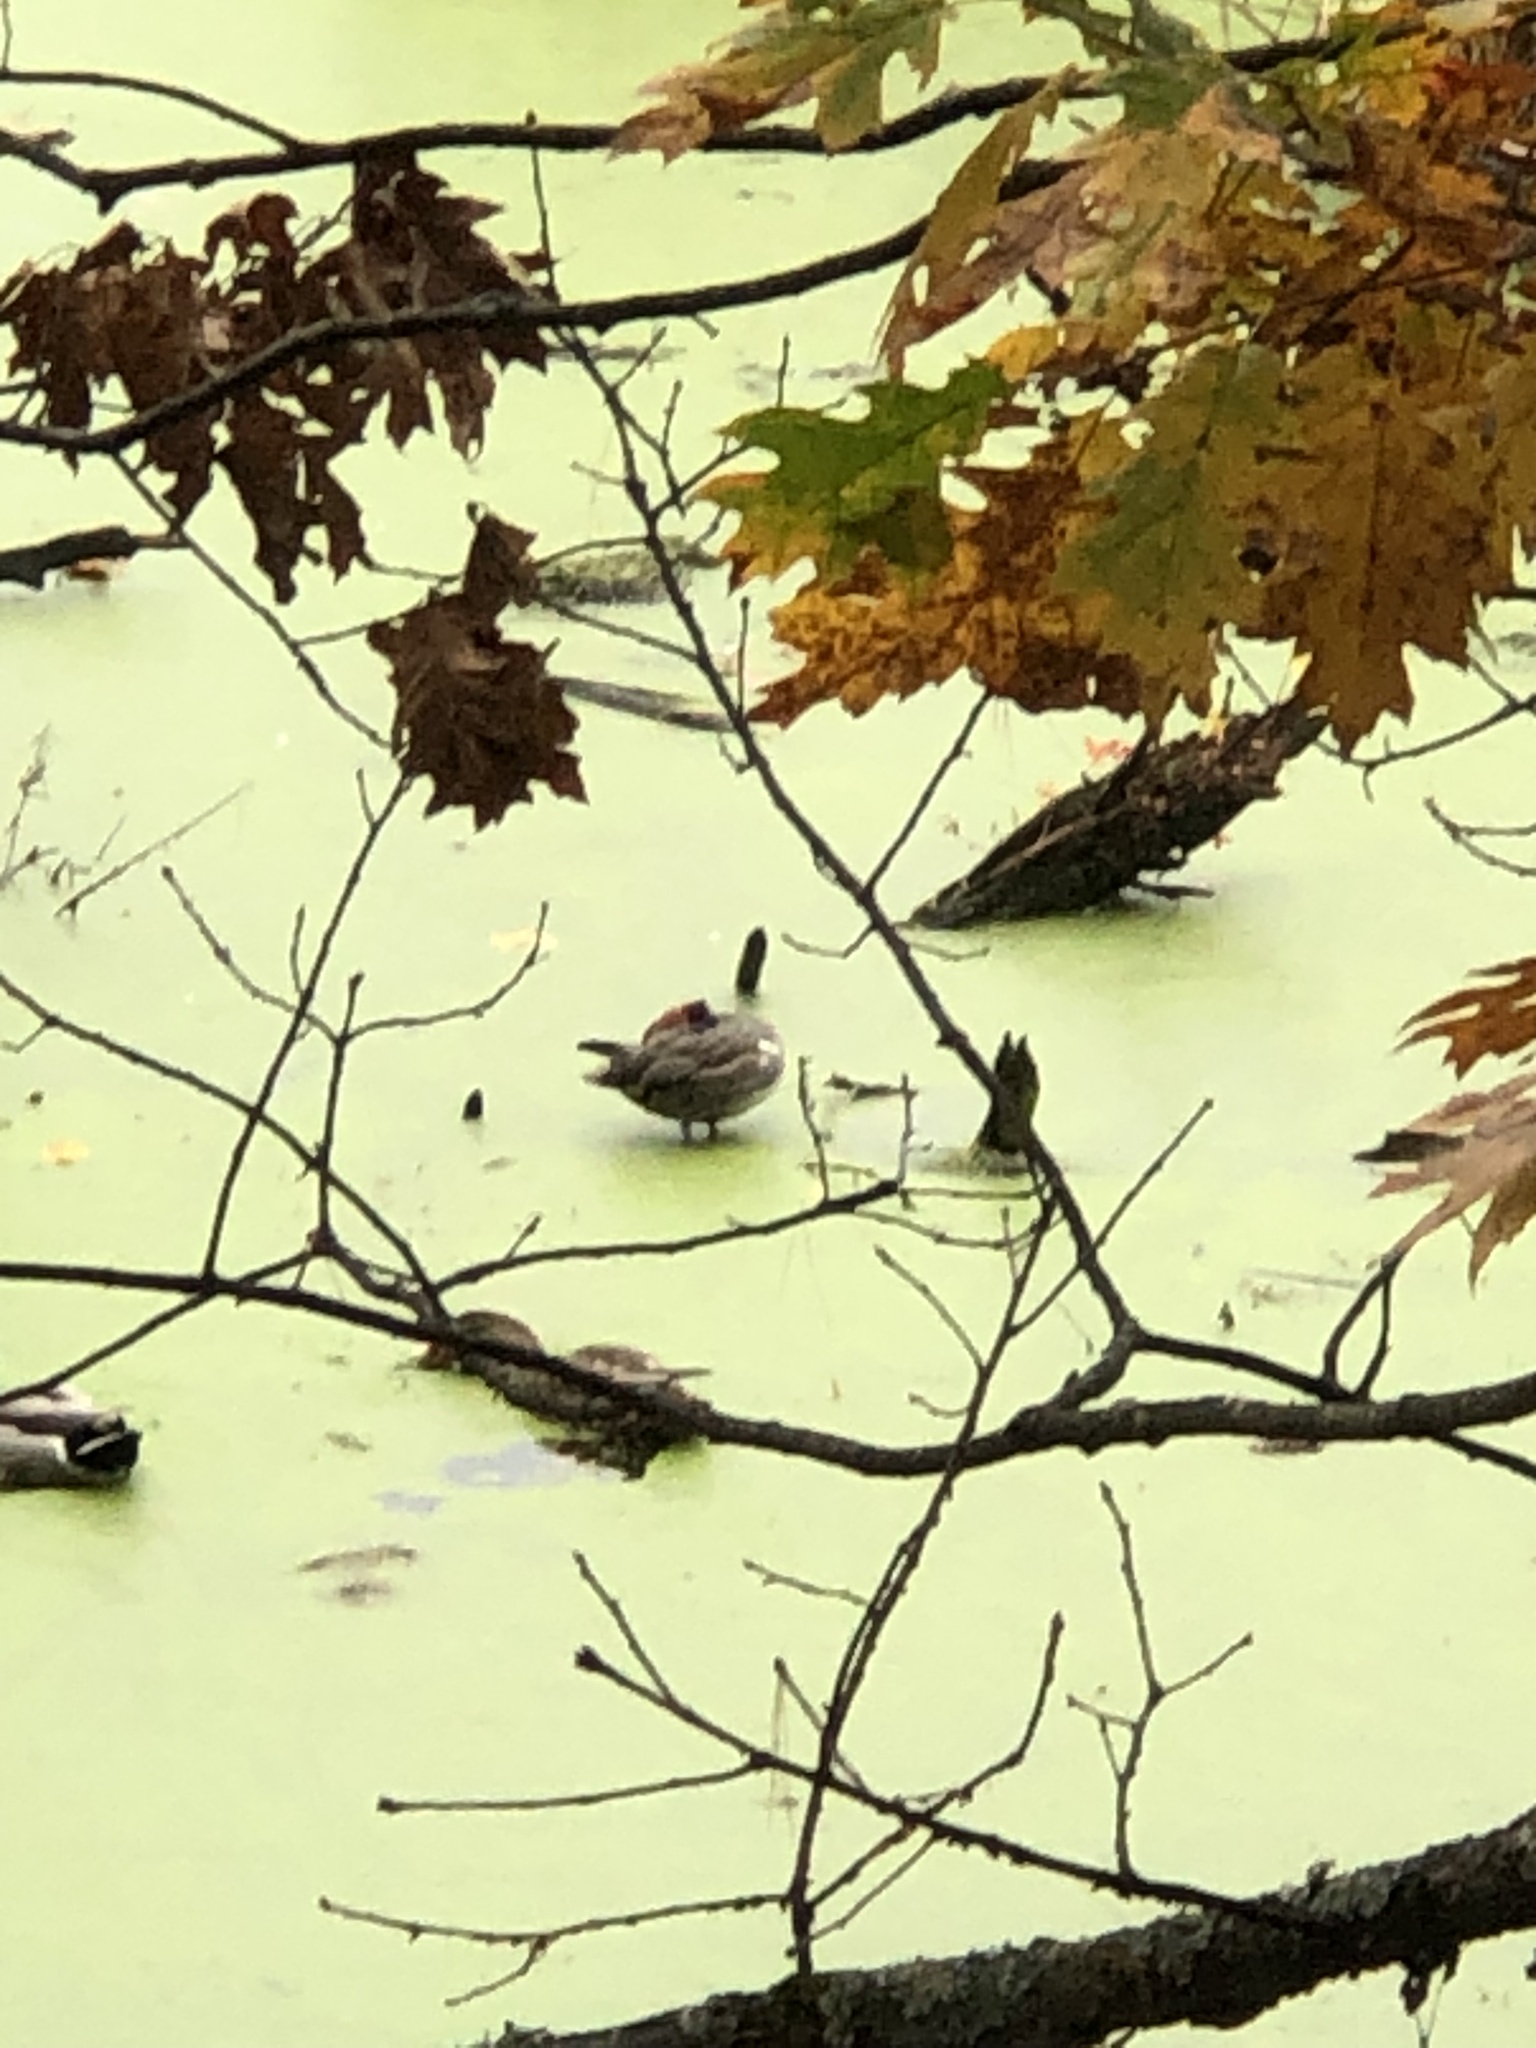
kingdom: Animalia
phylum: Chordata
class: Aves
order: Anseriformes
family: Anatidae
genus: Anas
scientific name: Anas crecca
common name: Eurasian teal
